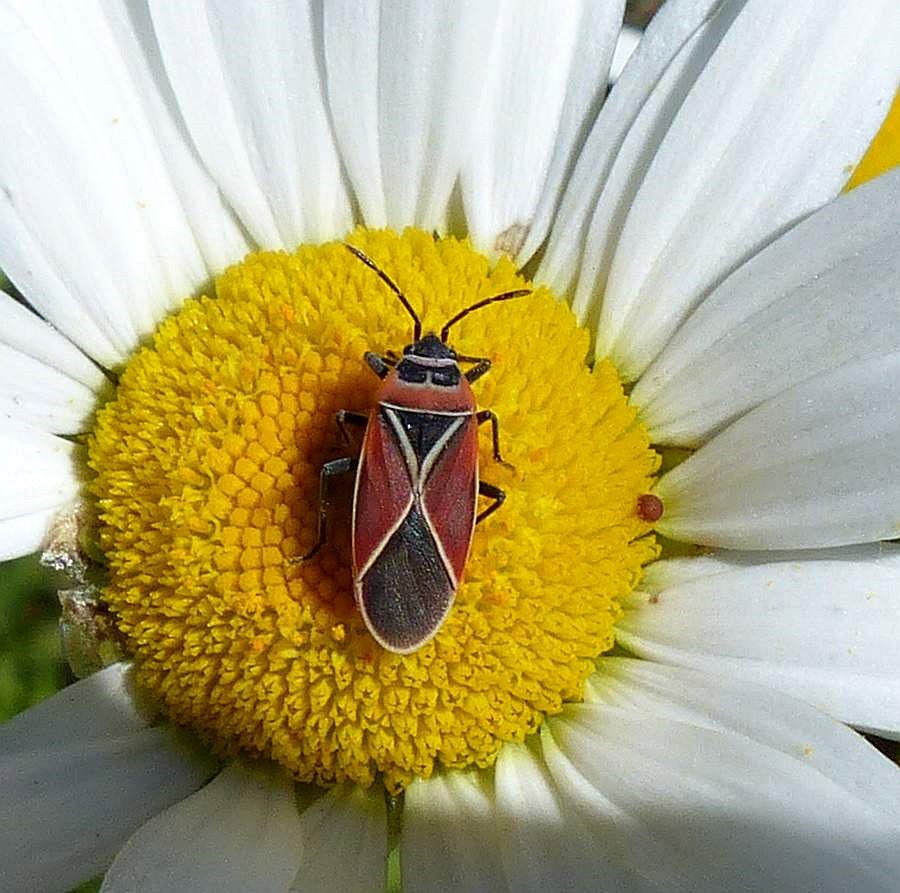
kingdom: Animalia
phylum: Arthropoda
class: Insecta
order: Hemiptera
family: Lygaeidae
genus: Neacoryphus
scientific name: Neacoryphus bicrucis
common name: Lygaeid bug
